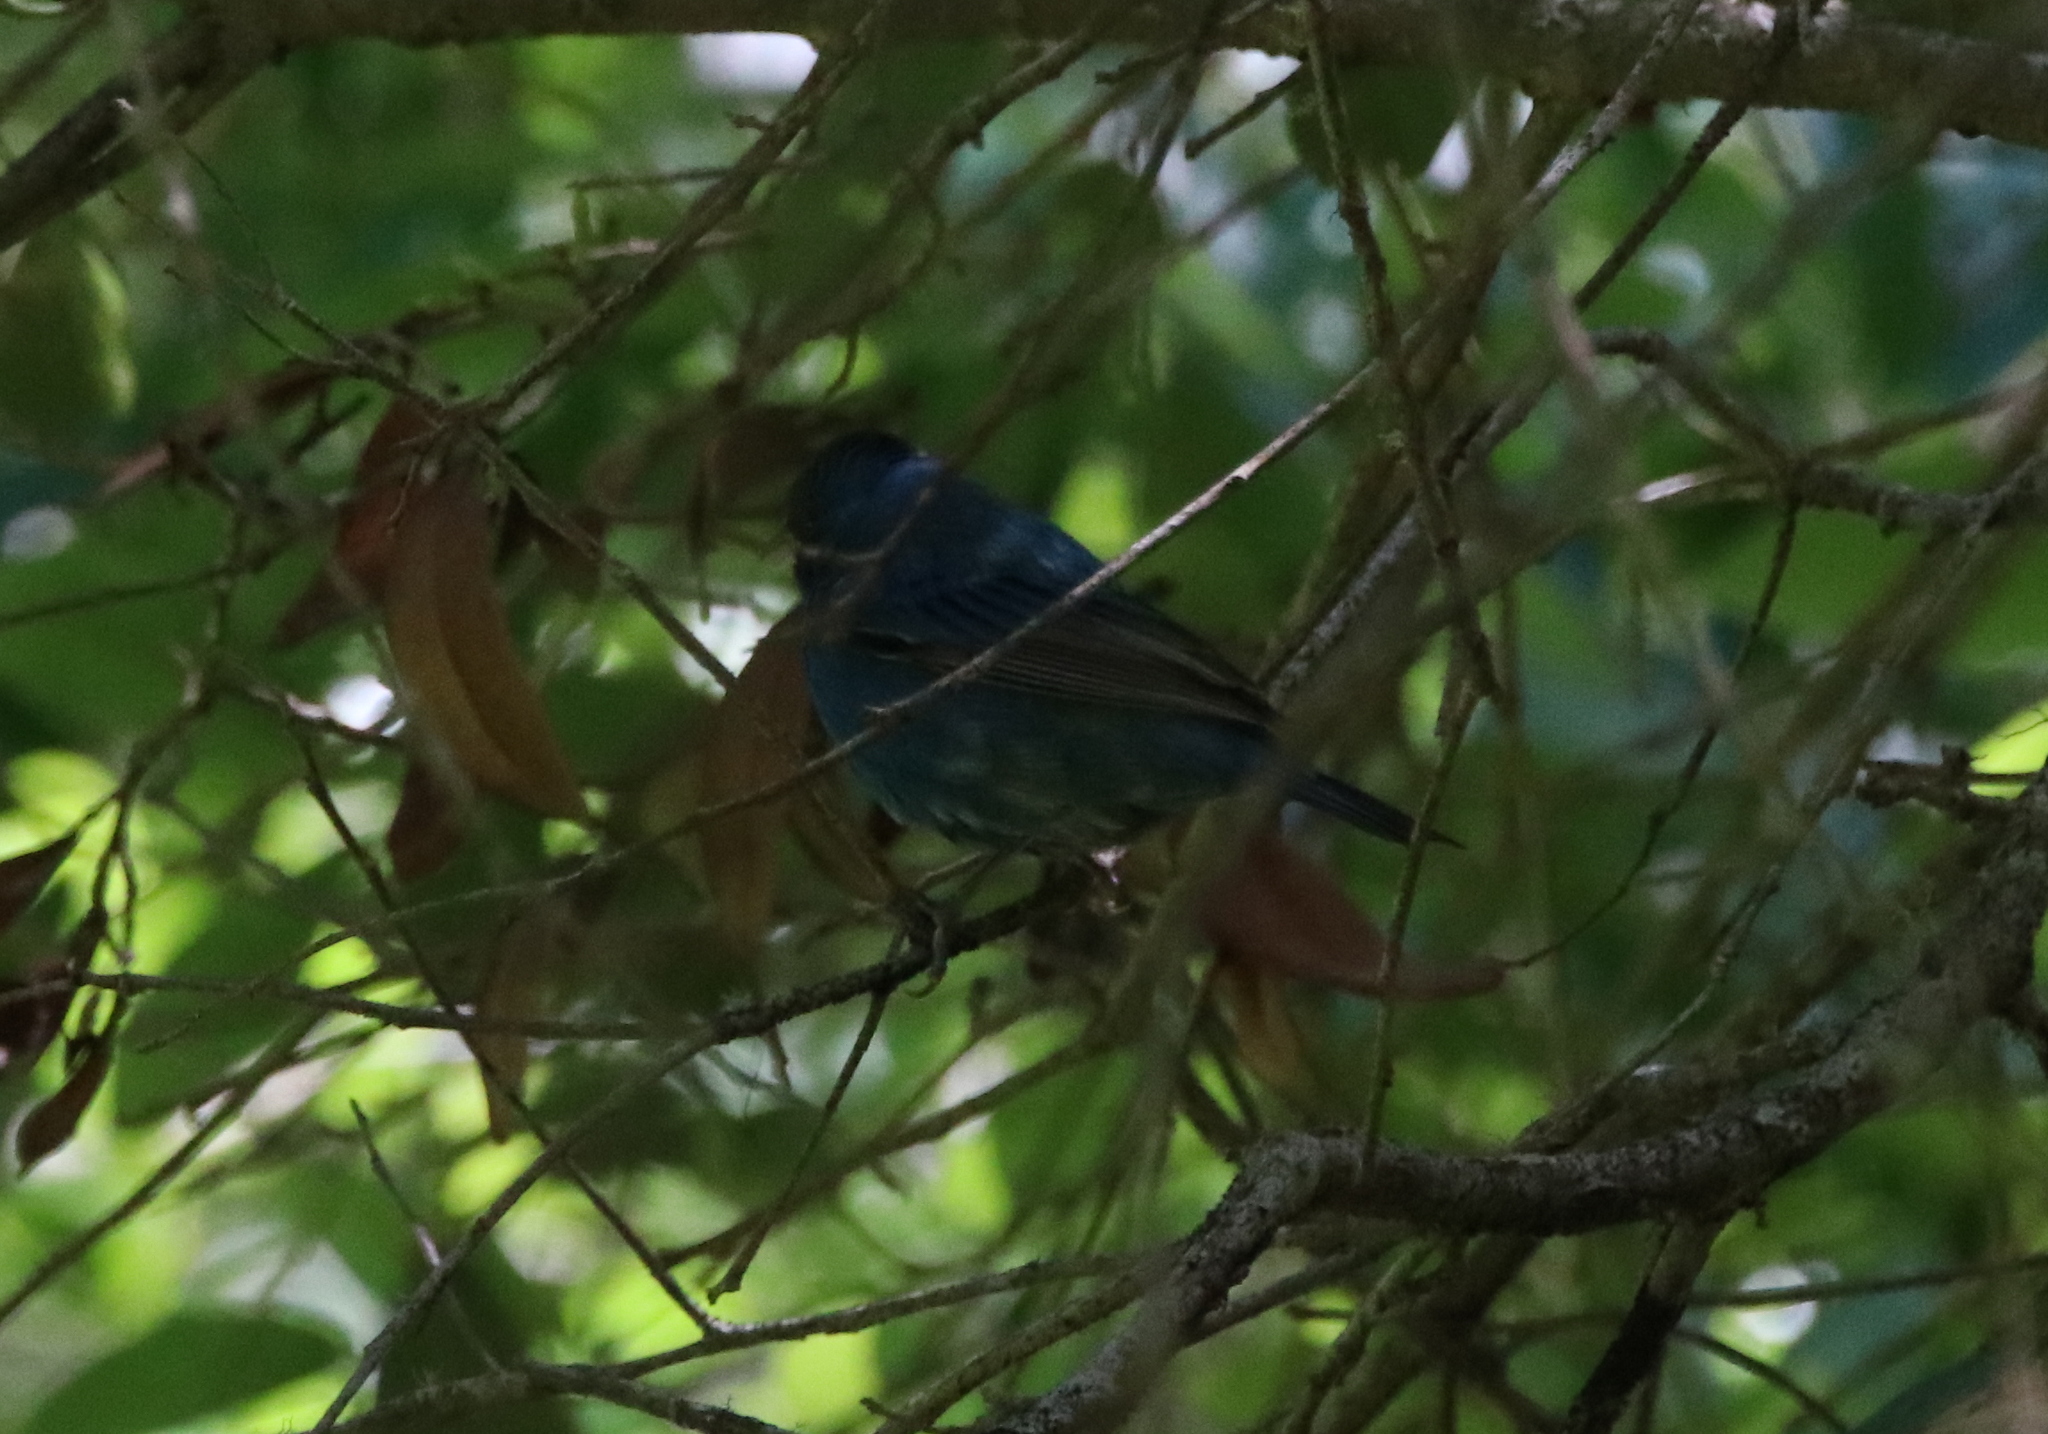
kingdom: Animalia
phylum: Chordata
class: Aves
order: Passeriformes
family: Cardinalidae
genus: Passerina
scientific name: Passerina cyanea
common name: Indigo bunting
